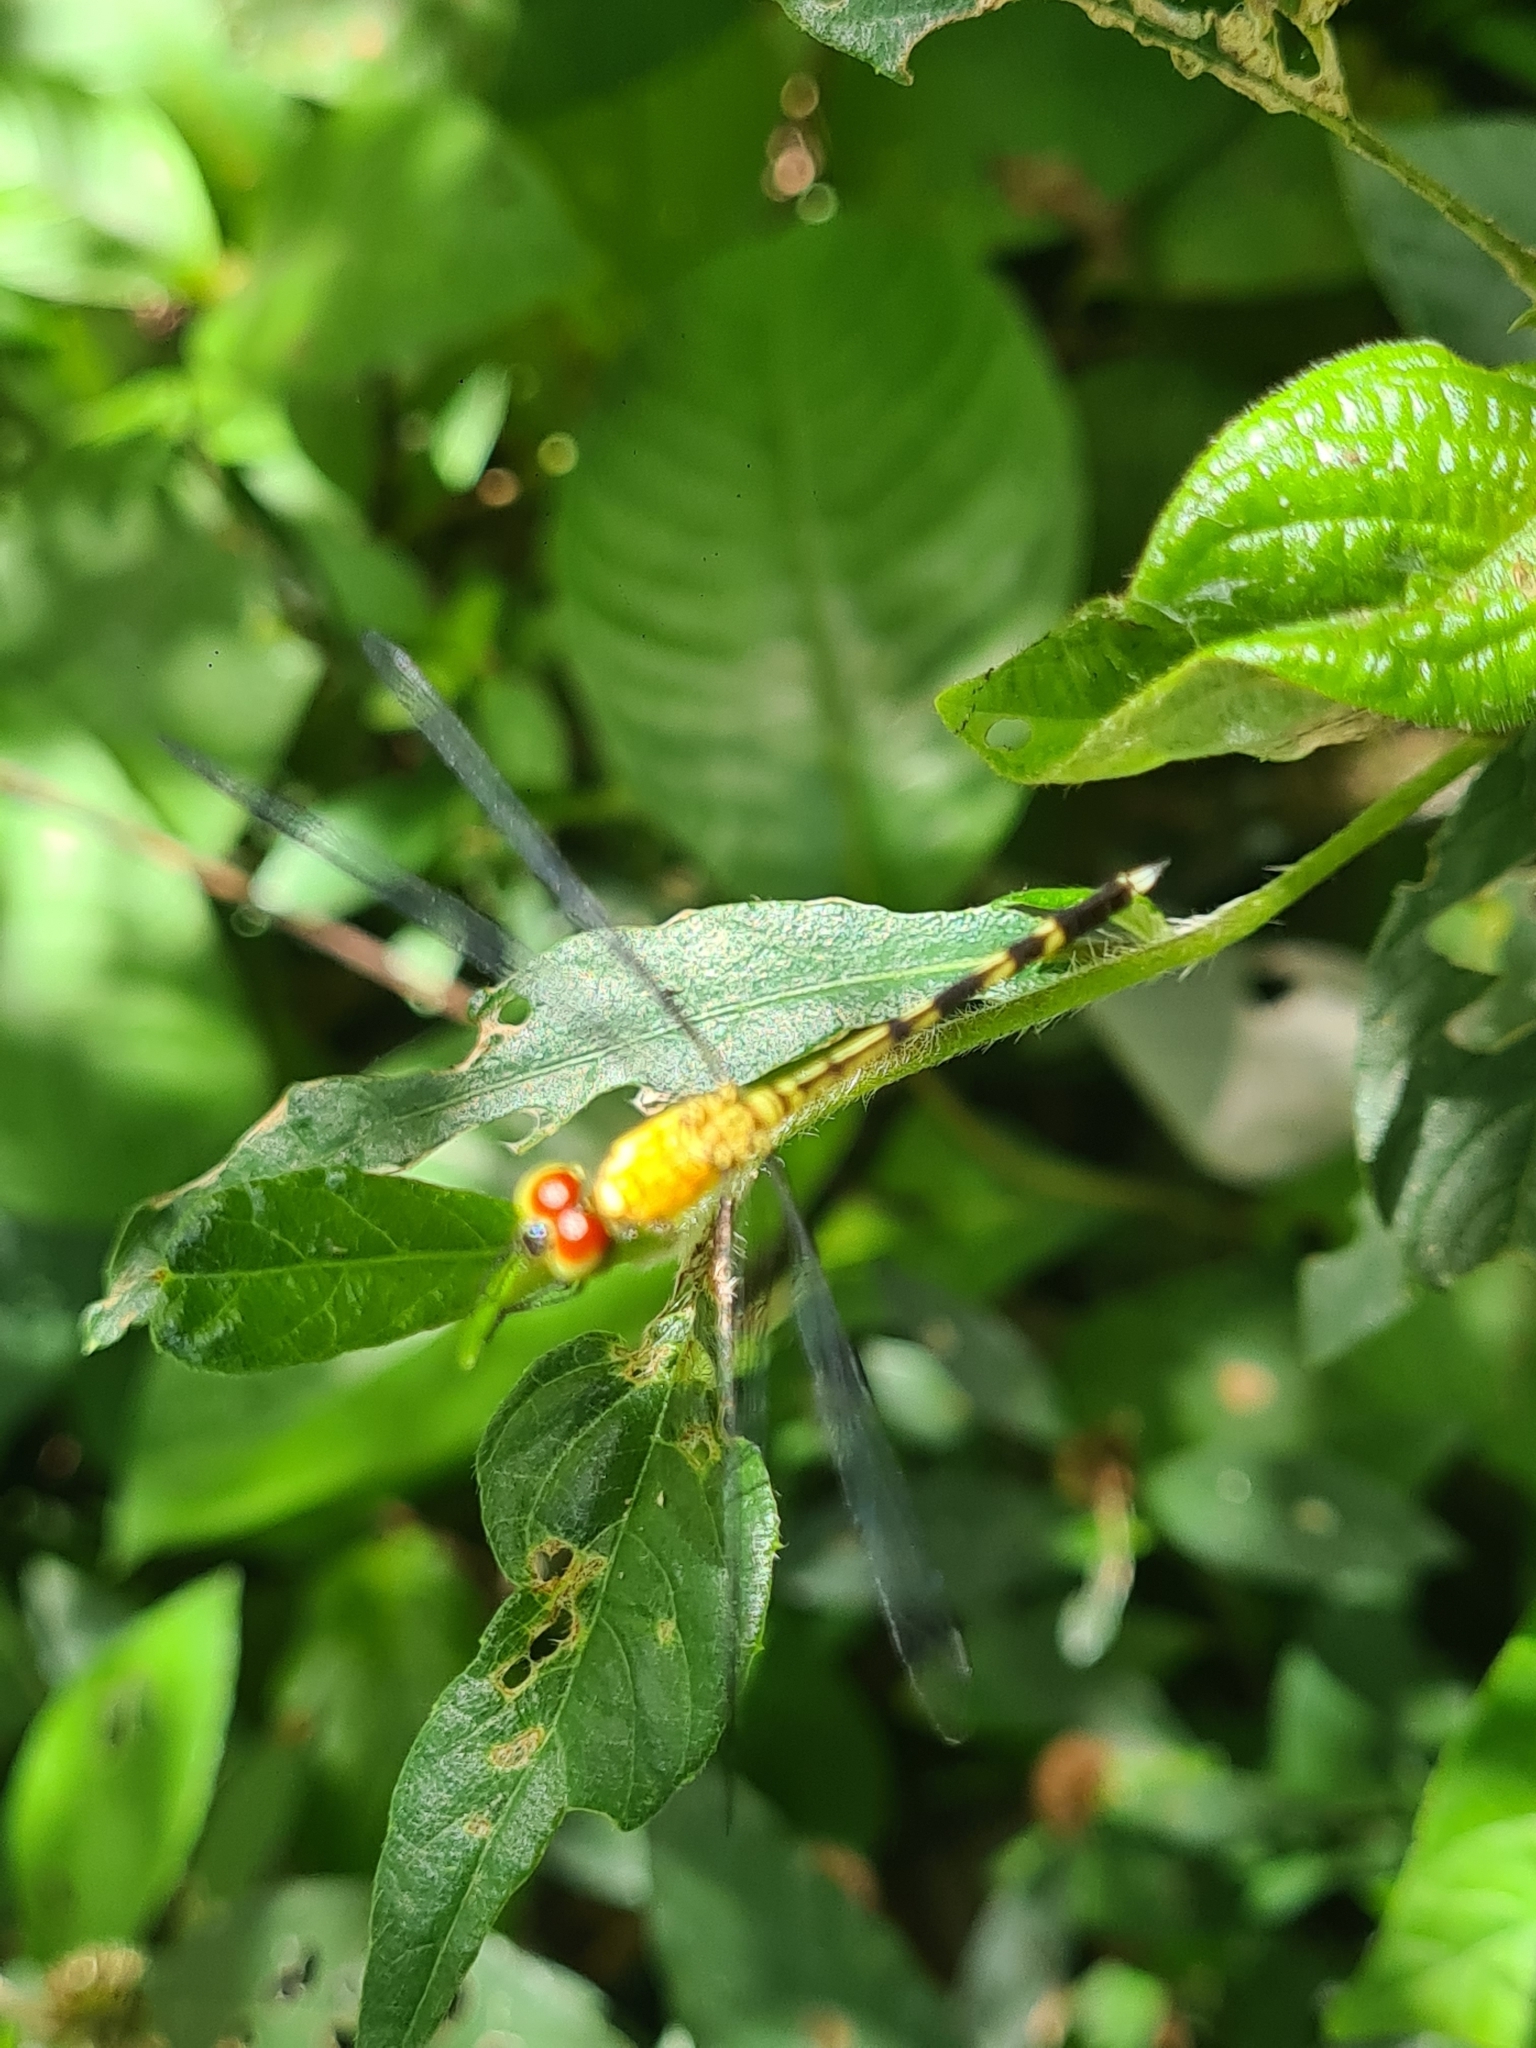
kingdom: Animalia
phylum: Arthropoda
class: Insecta
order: Odonata
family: Libellulidae
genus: Anatya
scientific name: Anatya guttata
